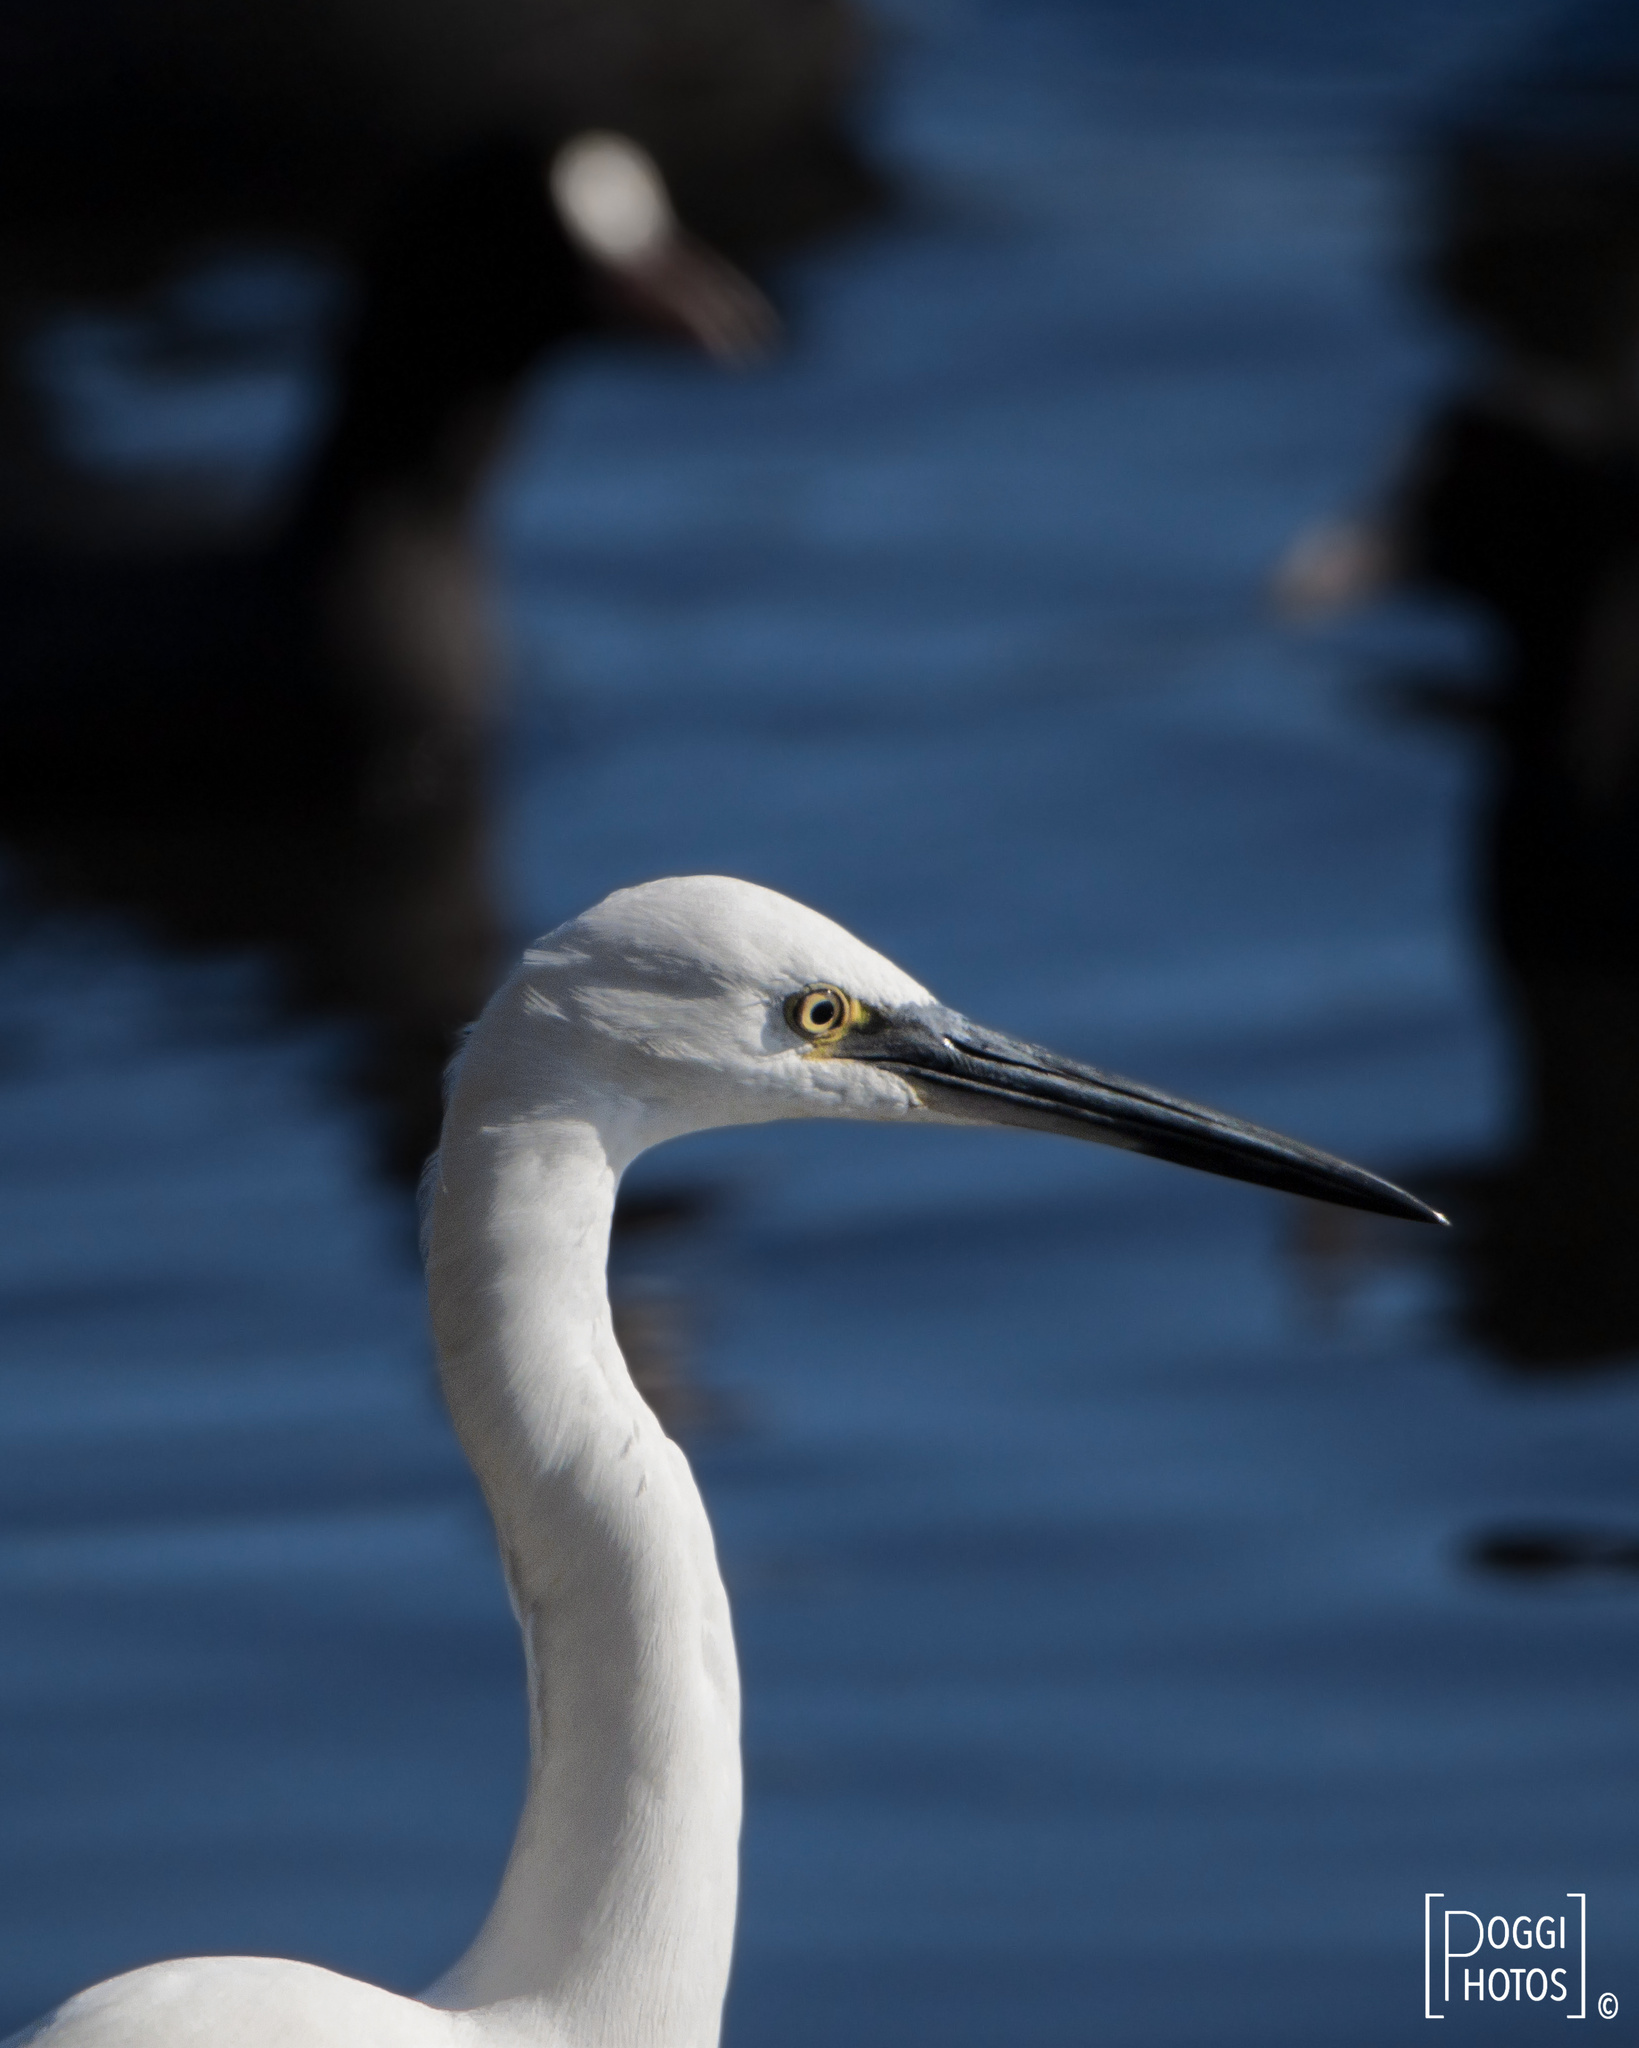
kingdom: Animalia
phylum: Chordata
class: Aves
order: Pelecaniformes
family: Ardeidae
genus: Egretta
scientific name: Egretta garzetta
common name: Little egret
